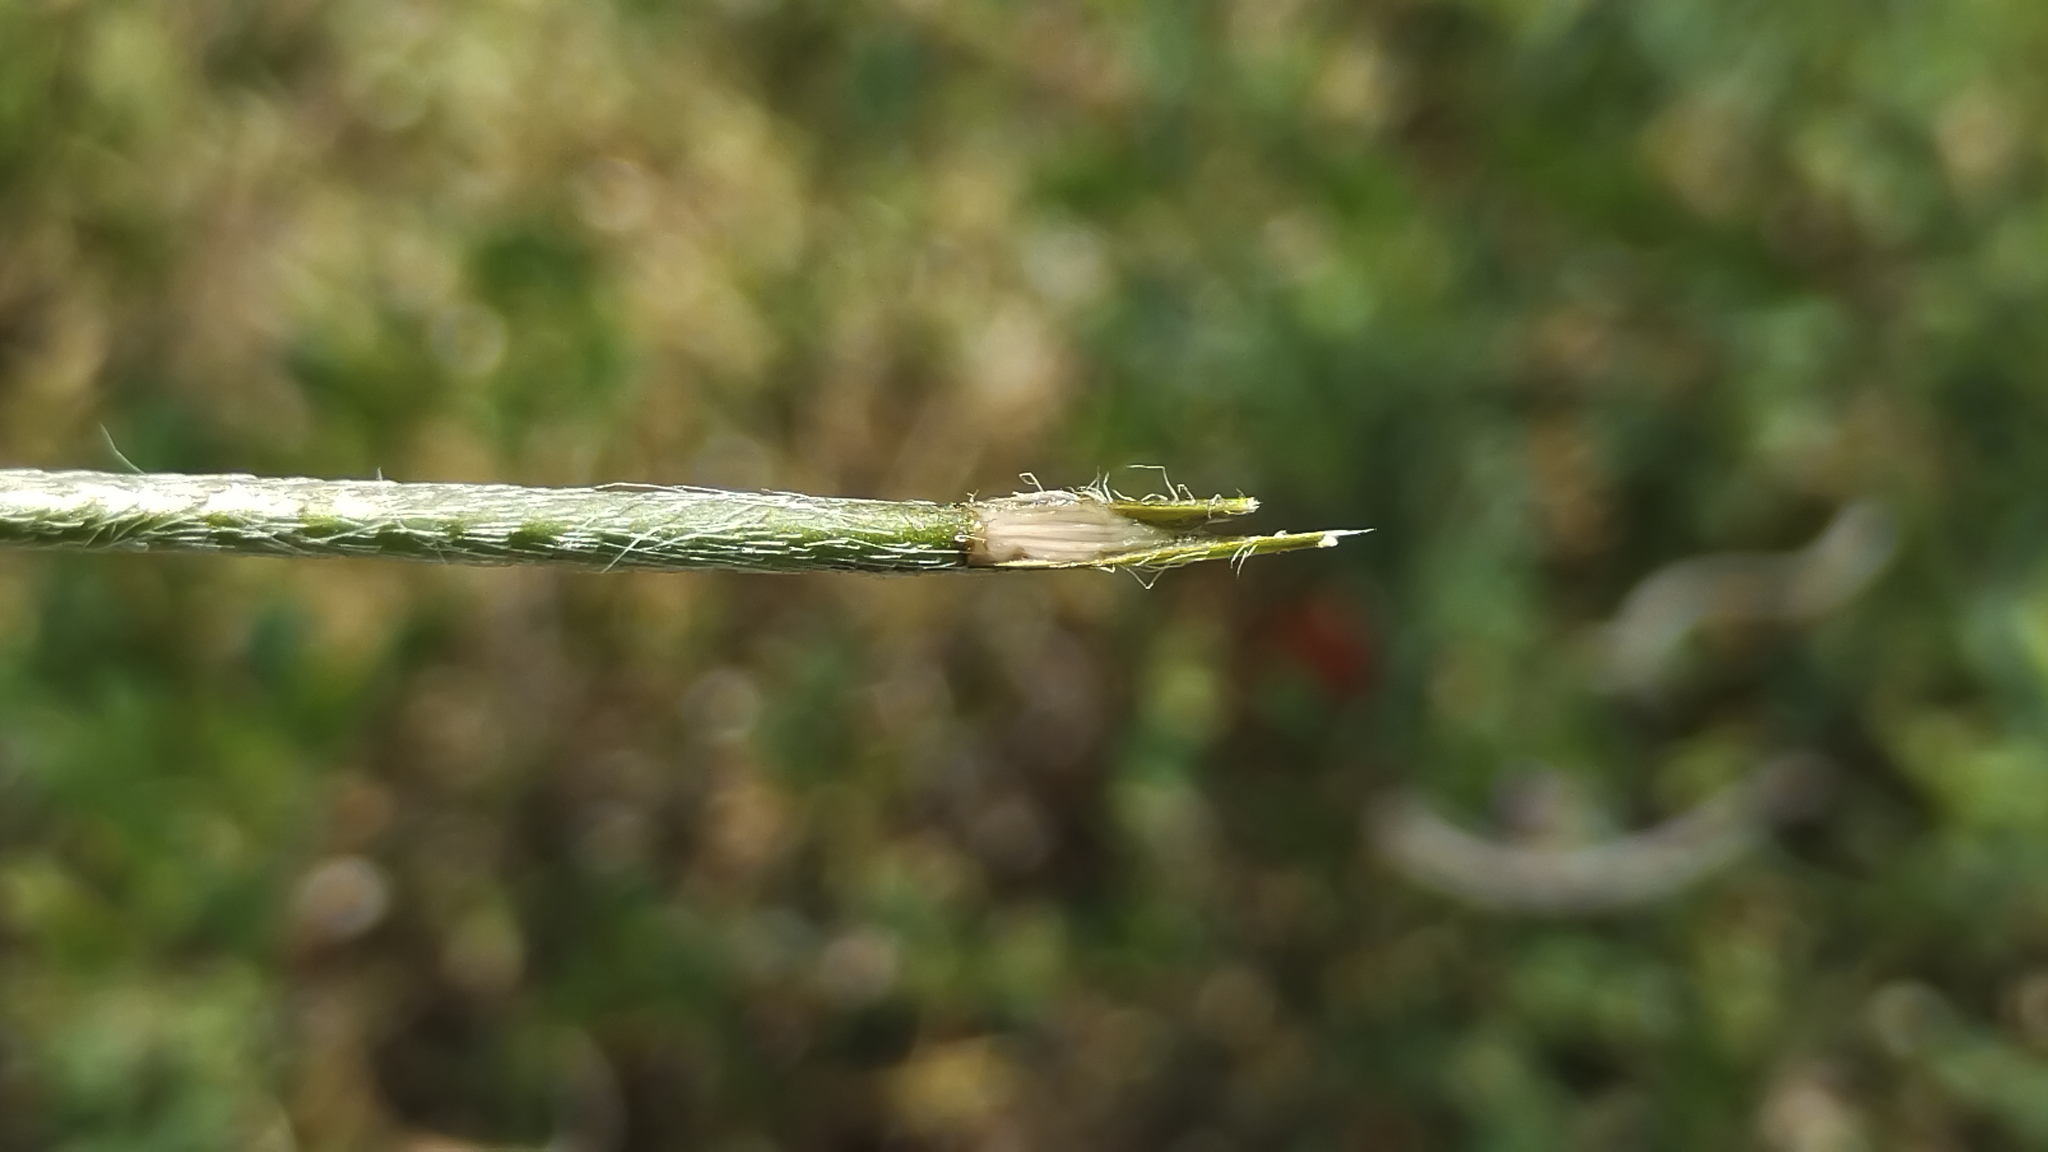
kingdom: Plantae
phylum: Tracheophyta
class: Magnoliopsida
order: Ranunculales
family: Papaveraceae
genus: Papaver
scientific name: Papaver dubium
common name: Long-headed poppy
